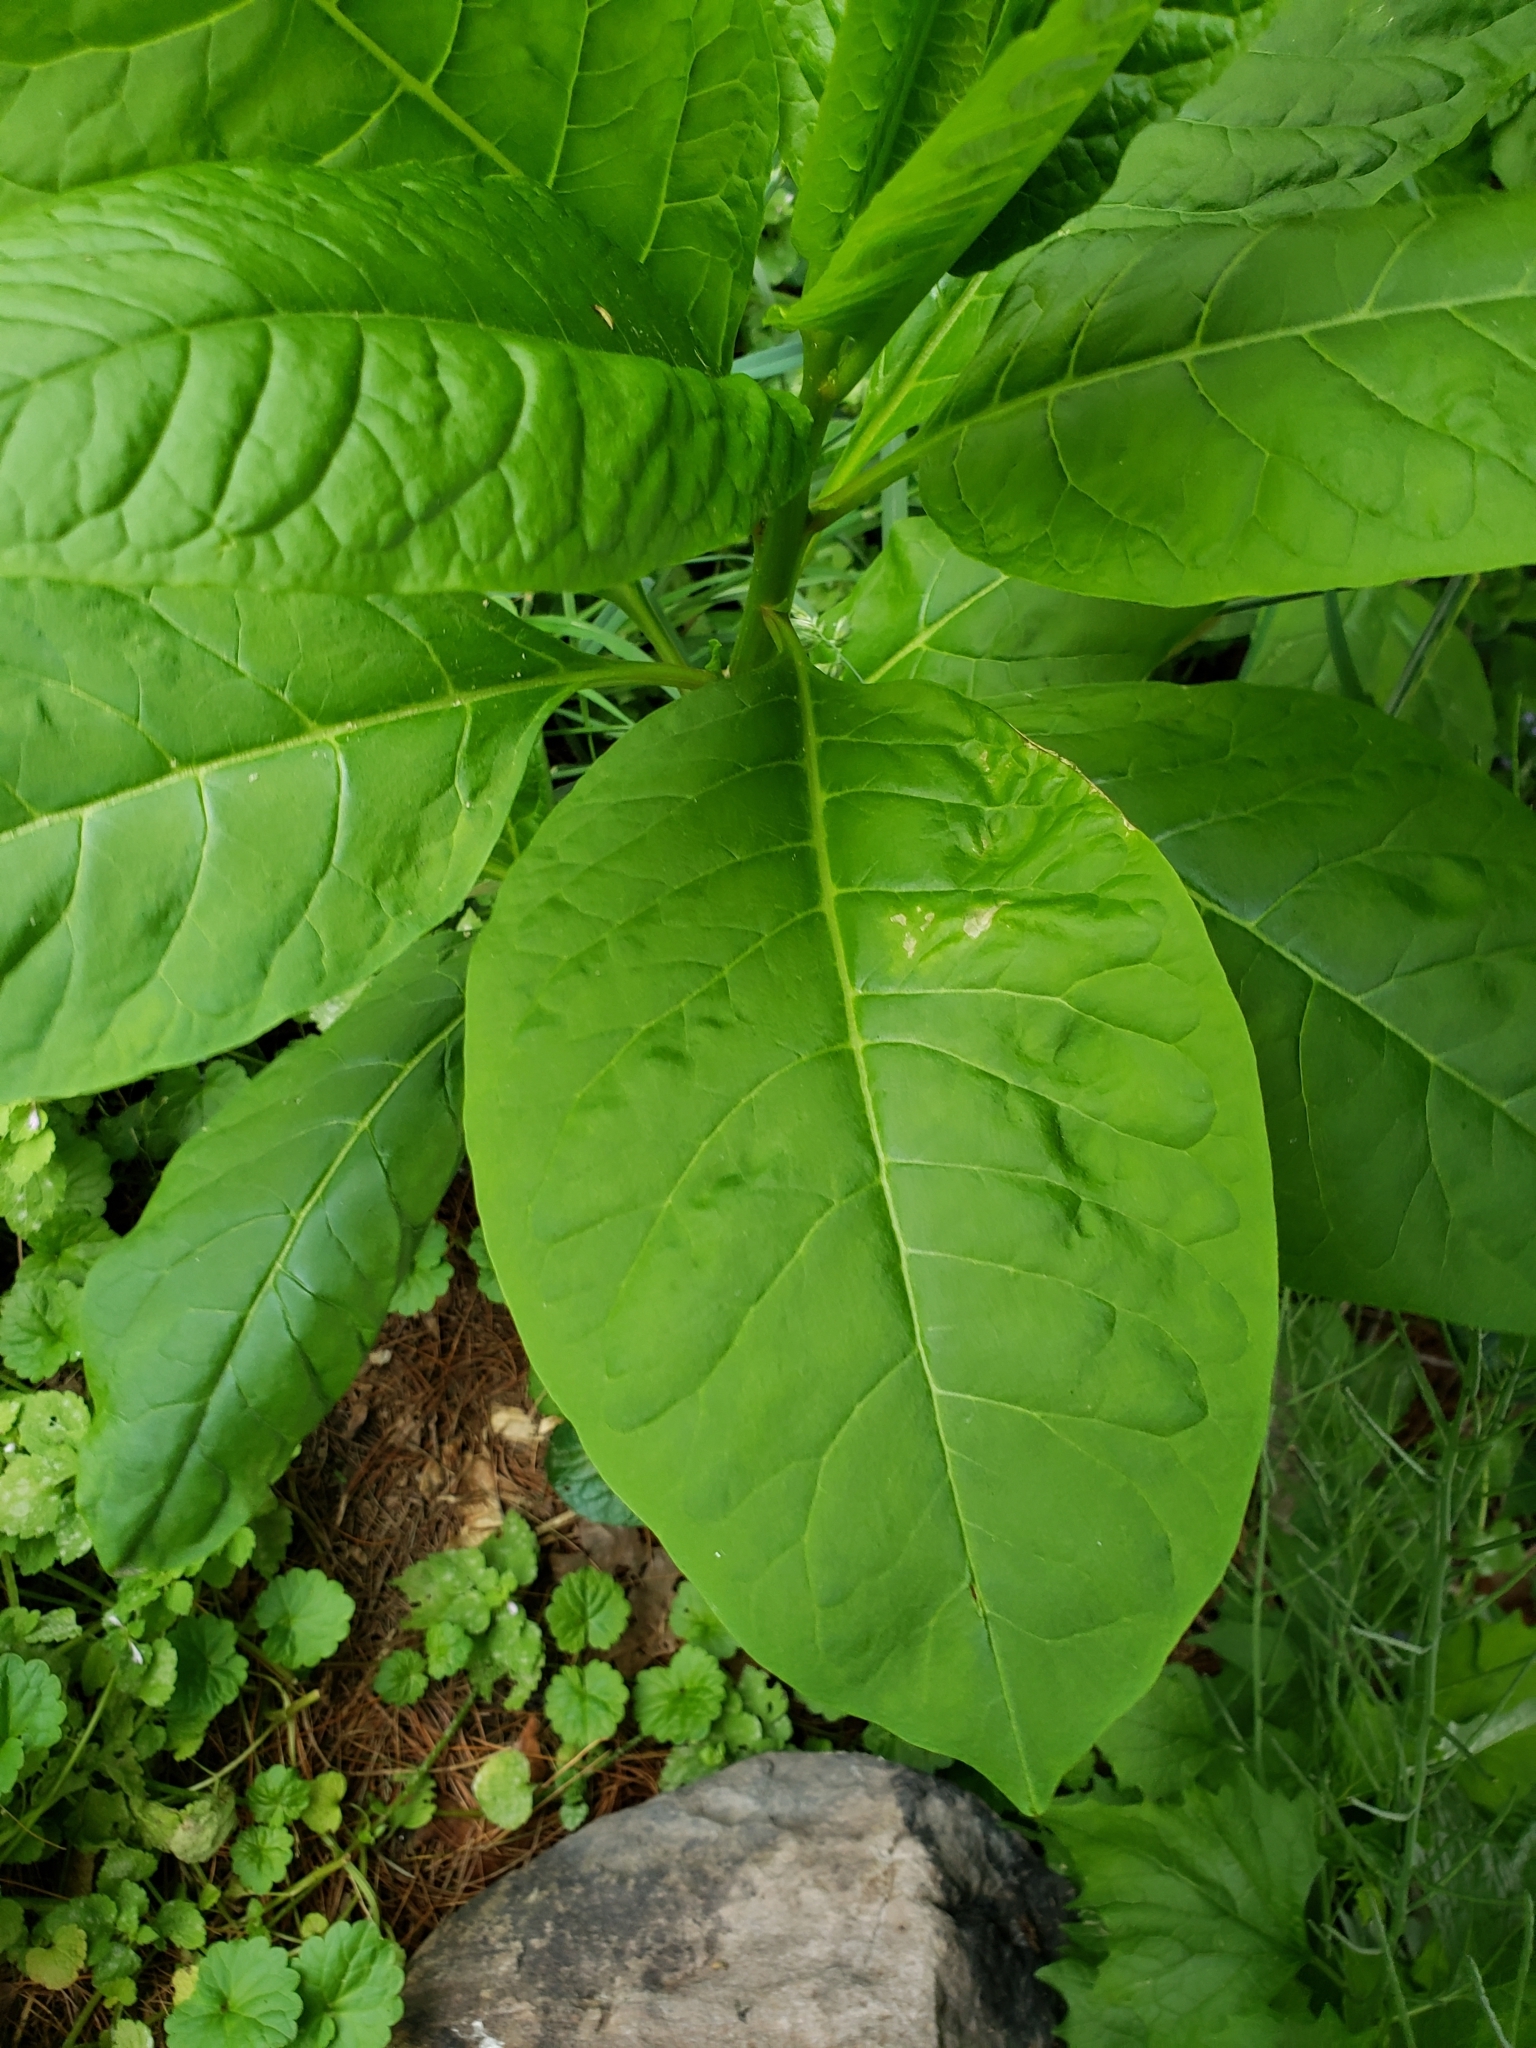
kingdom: Plantae
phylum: Tracheophyta
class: Magnoliopsida
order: Caryophyllales
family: Phytolaccaceae
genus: Phytolacca
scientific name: Phytolacca americana
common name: American pokeweed
